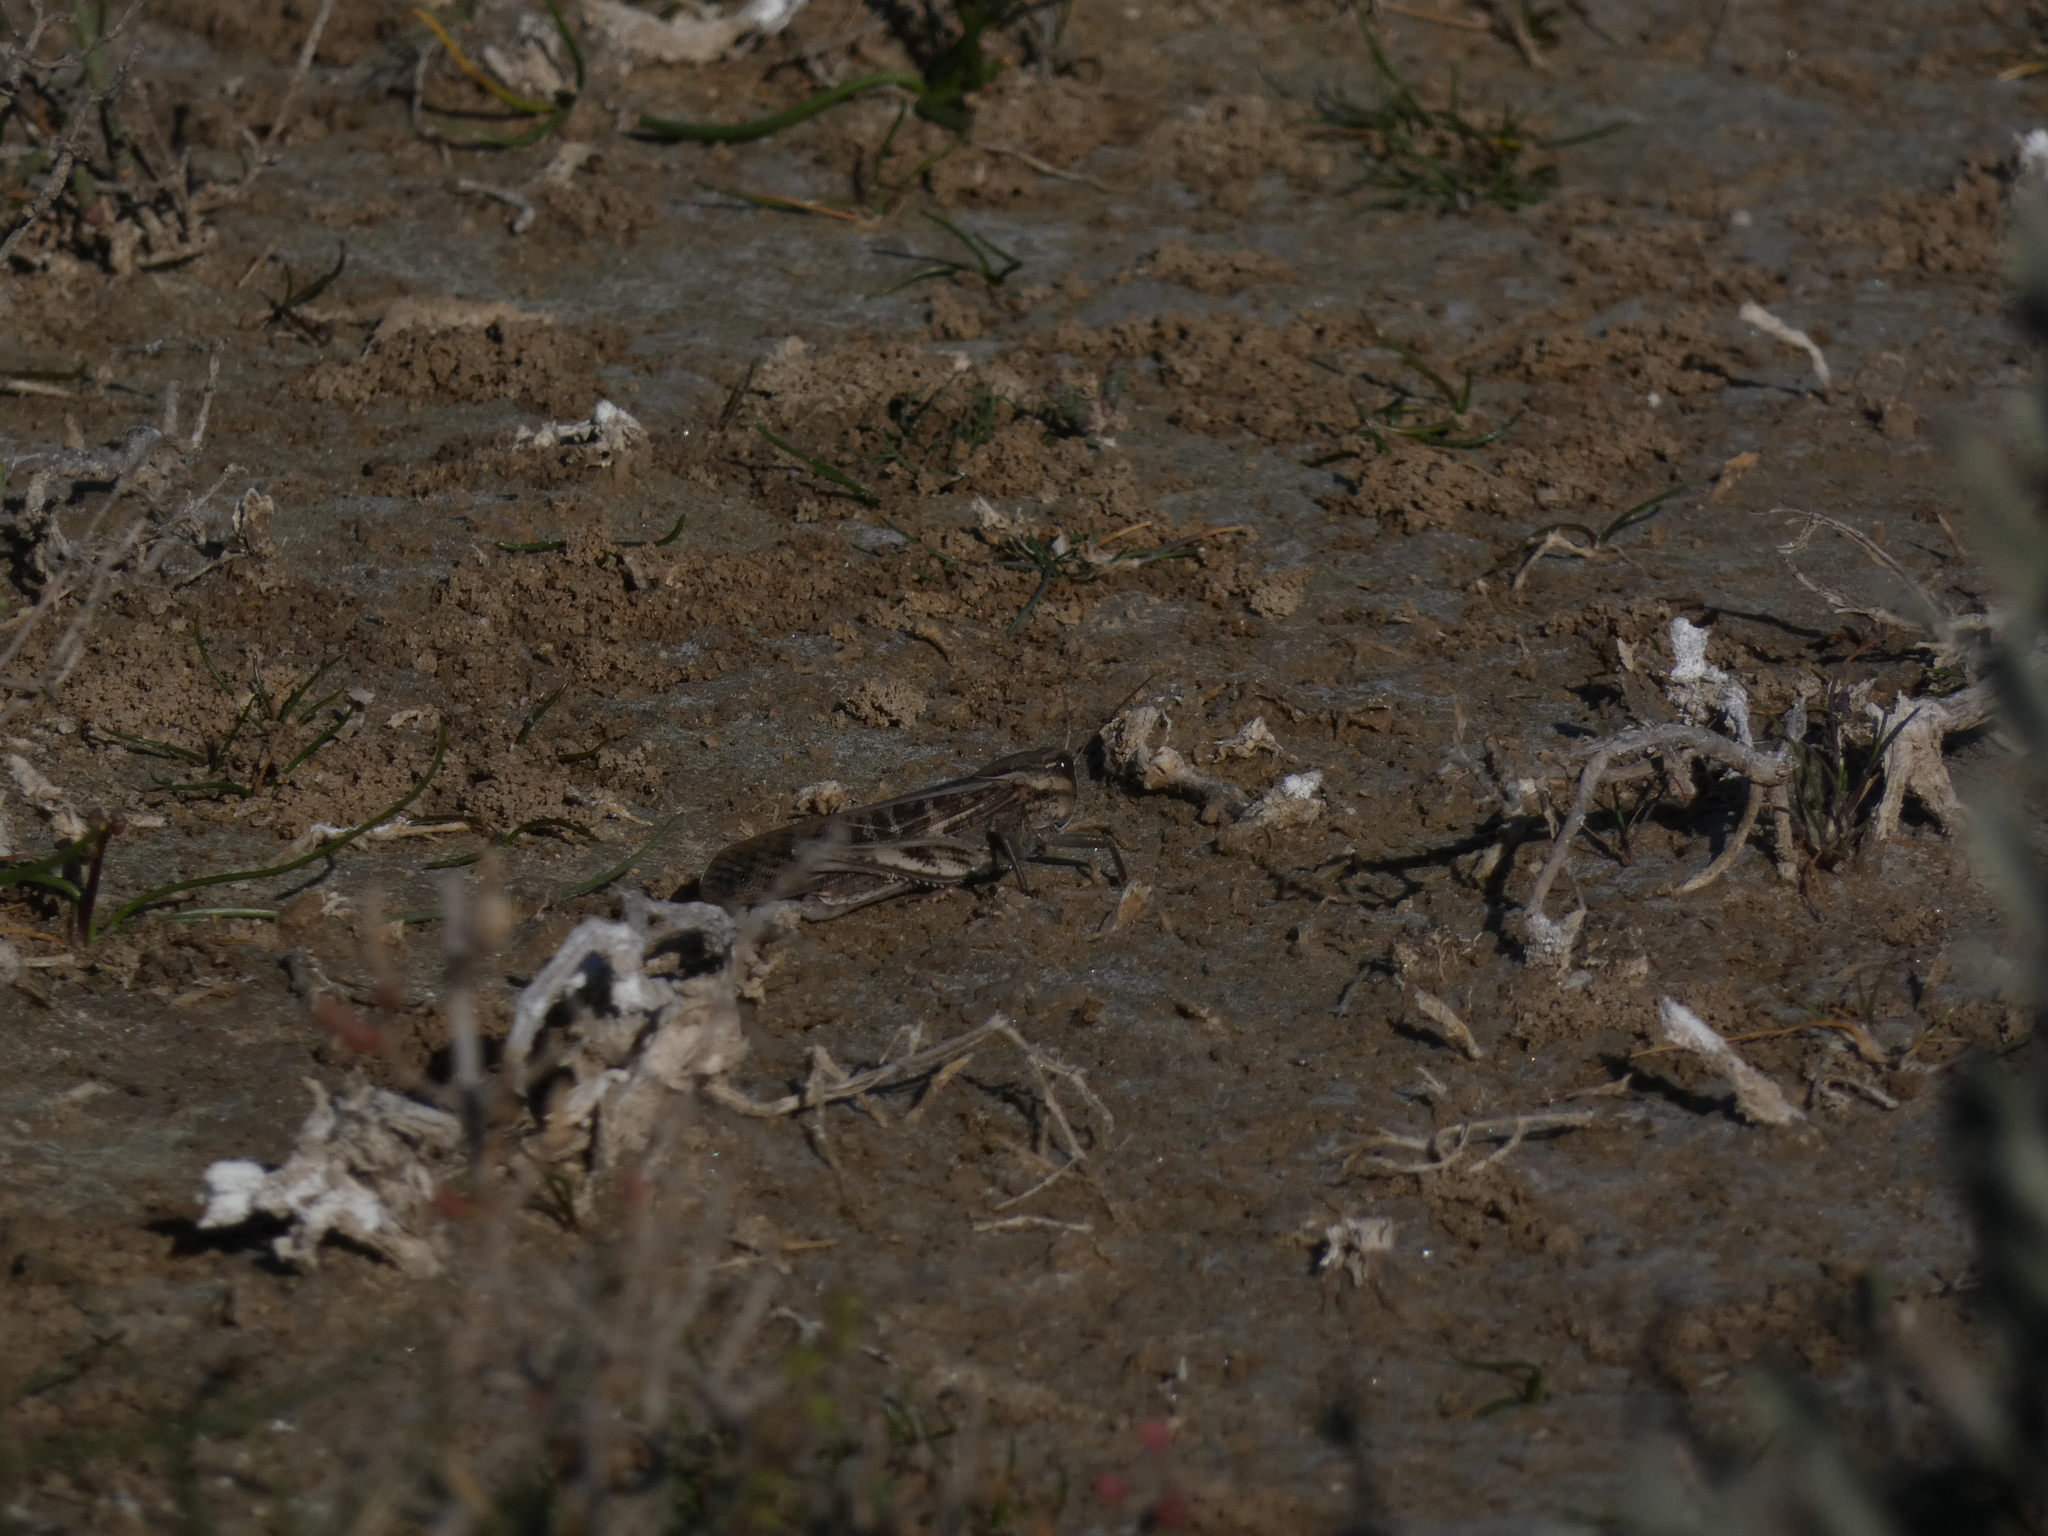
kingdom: Animalia
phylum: Arthropoda
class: Insecta
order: Orthoptera
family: Acrididae
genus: Locusta
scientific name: Locusta migratoria
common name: Migratory locust
